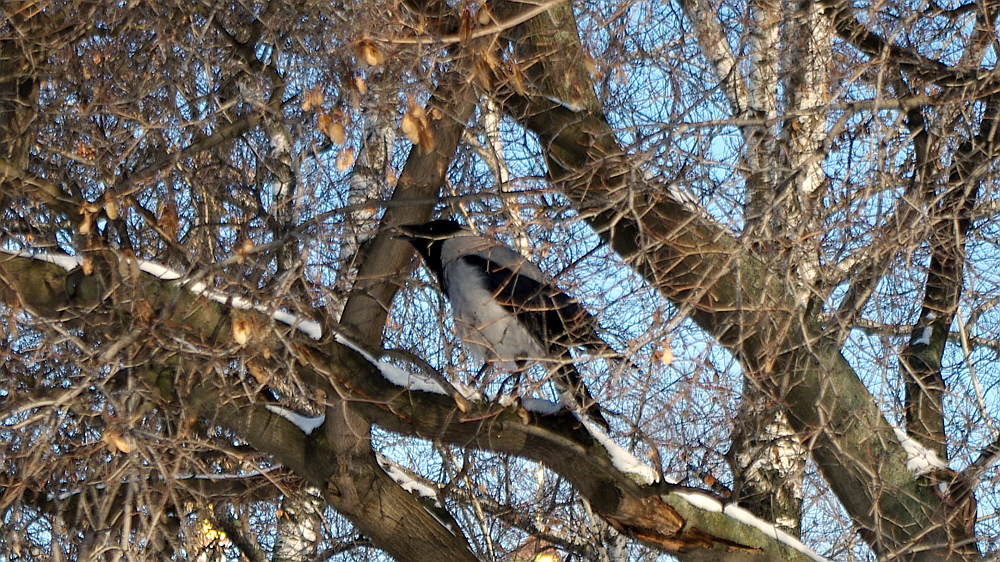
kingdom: Animalia
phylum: Chordata
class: Aves
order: Passeriformes
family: Corvidae
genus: Corvus
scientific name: Corvus cornix
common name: Hooded crow
